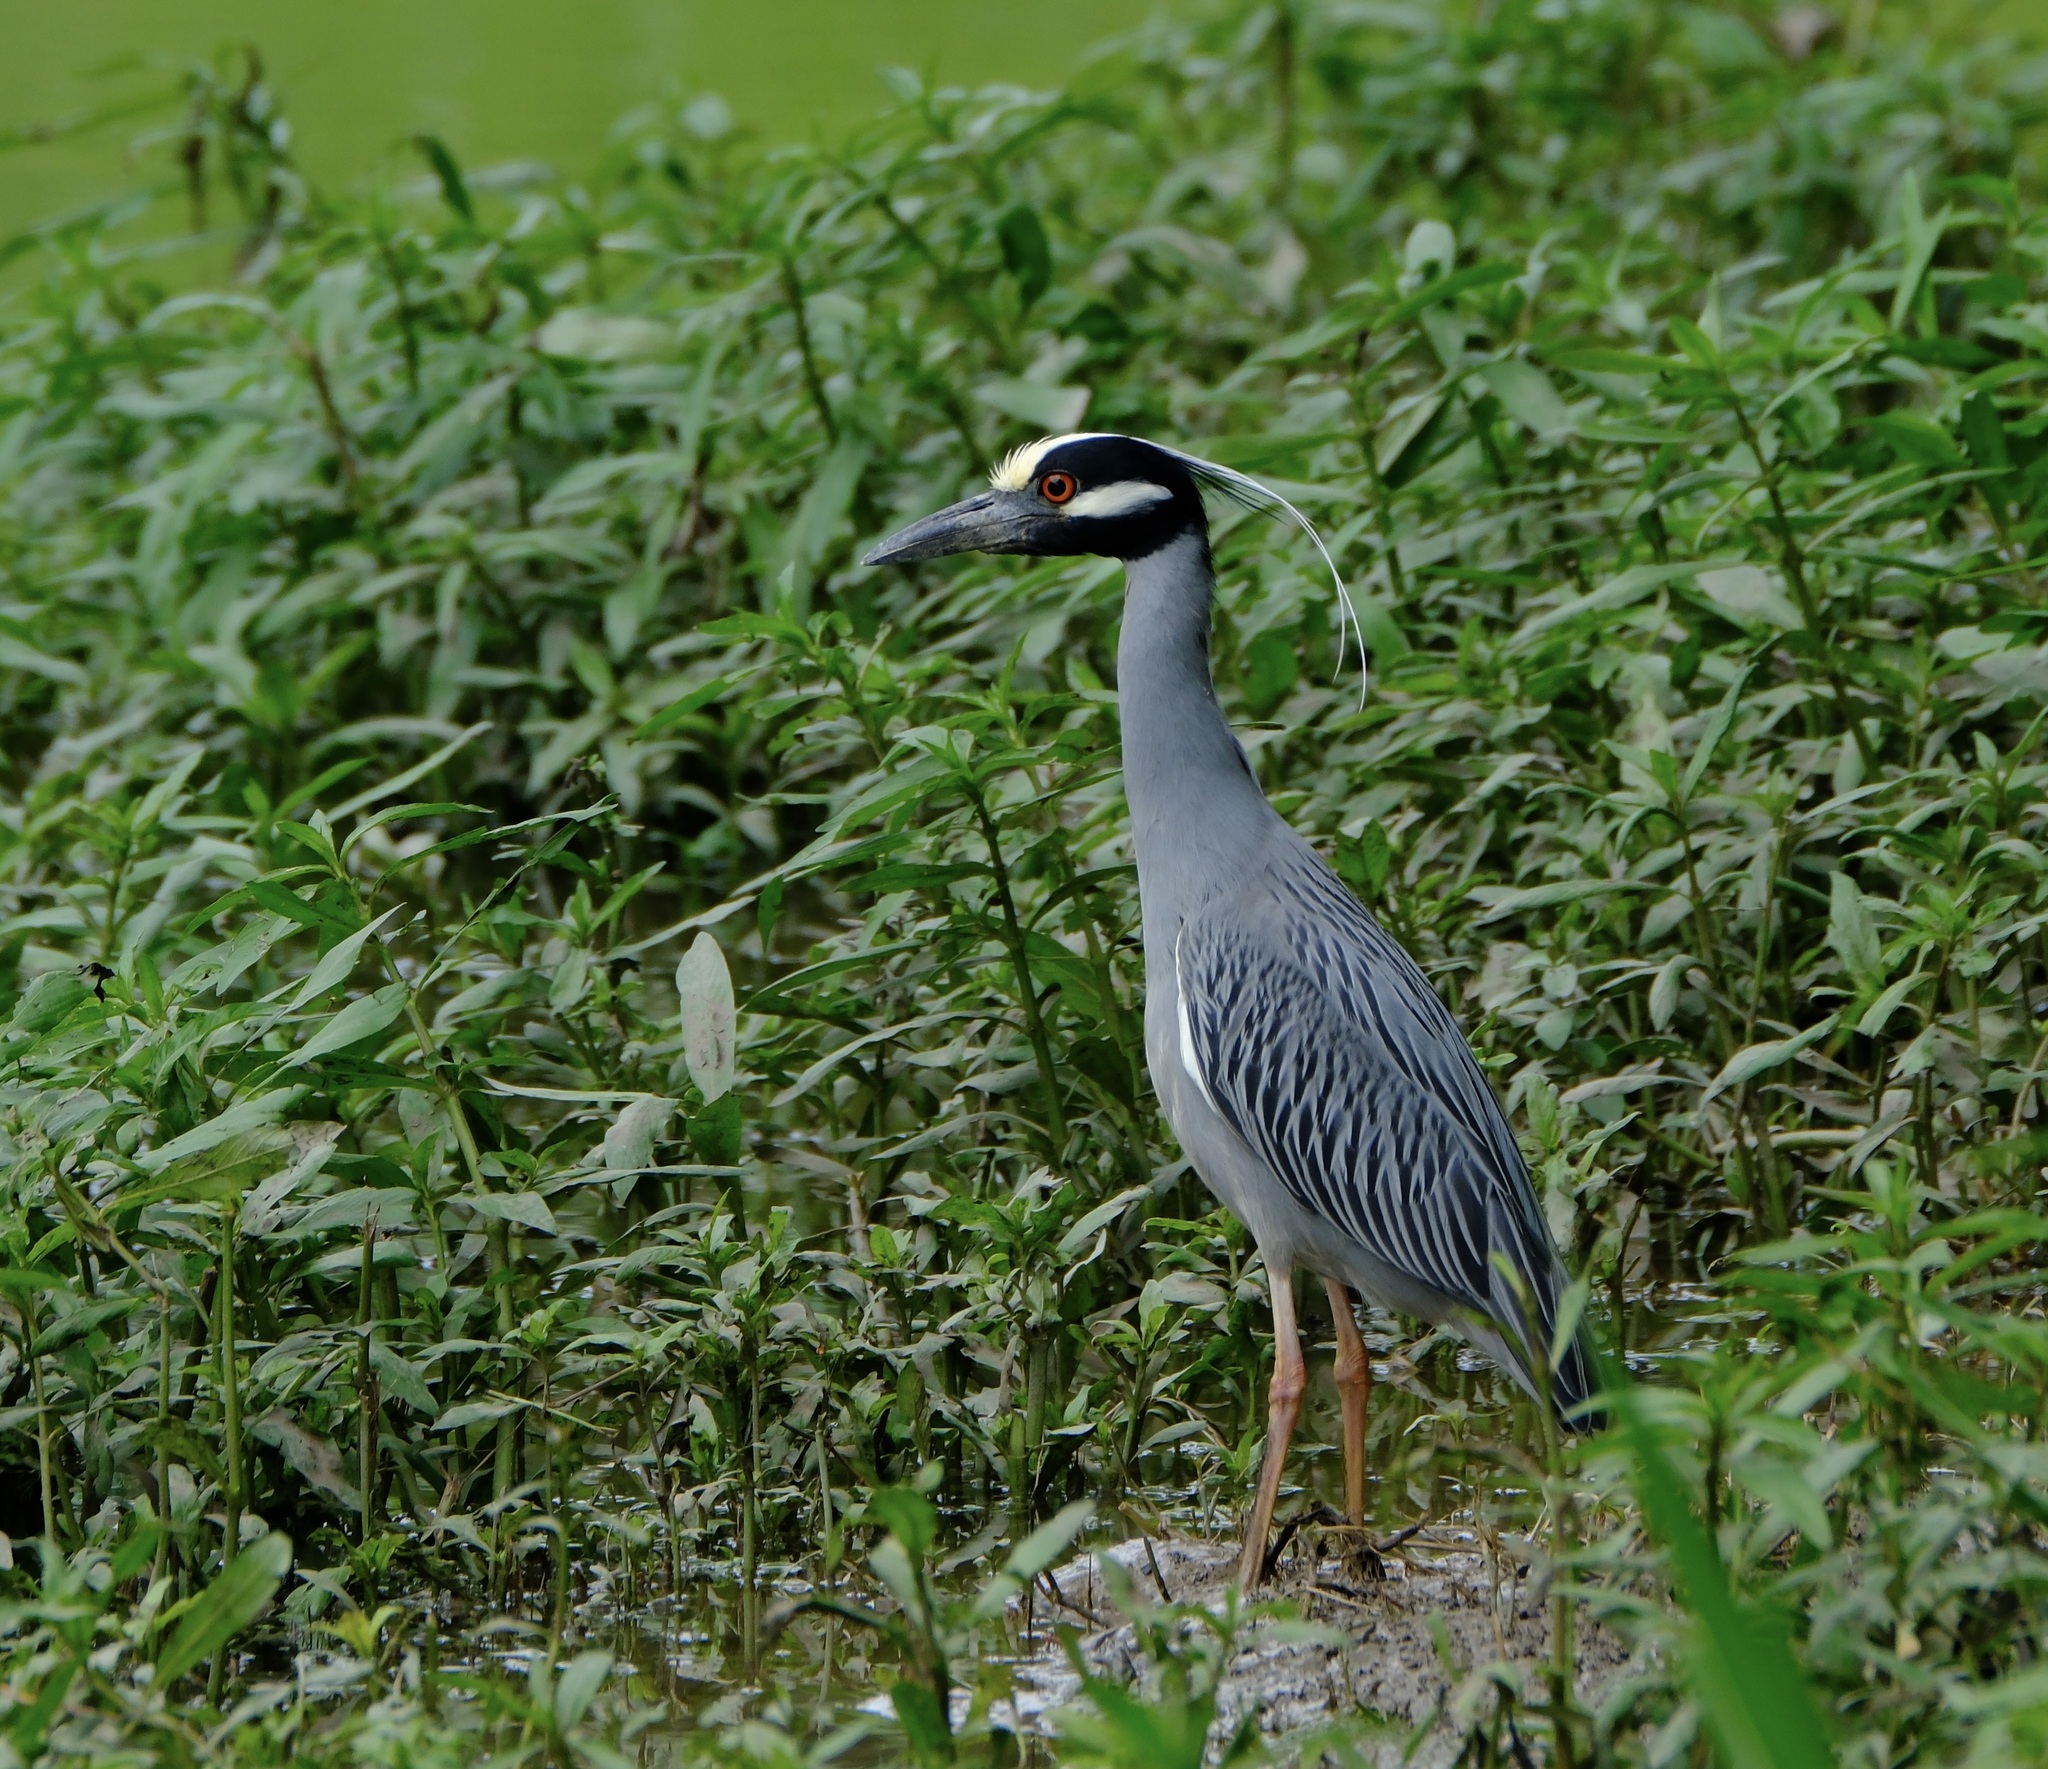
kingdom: Animalia
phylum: Chordata
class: Aves
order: Pelecaniformes
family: Ardeidae
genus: Nyctanassa
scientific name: Nyctanassa violacea
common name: Yellow-crowned night heron
